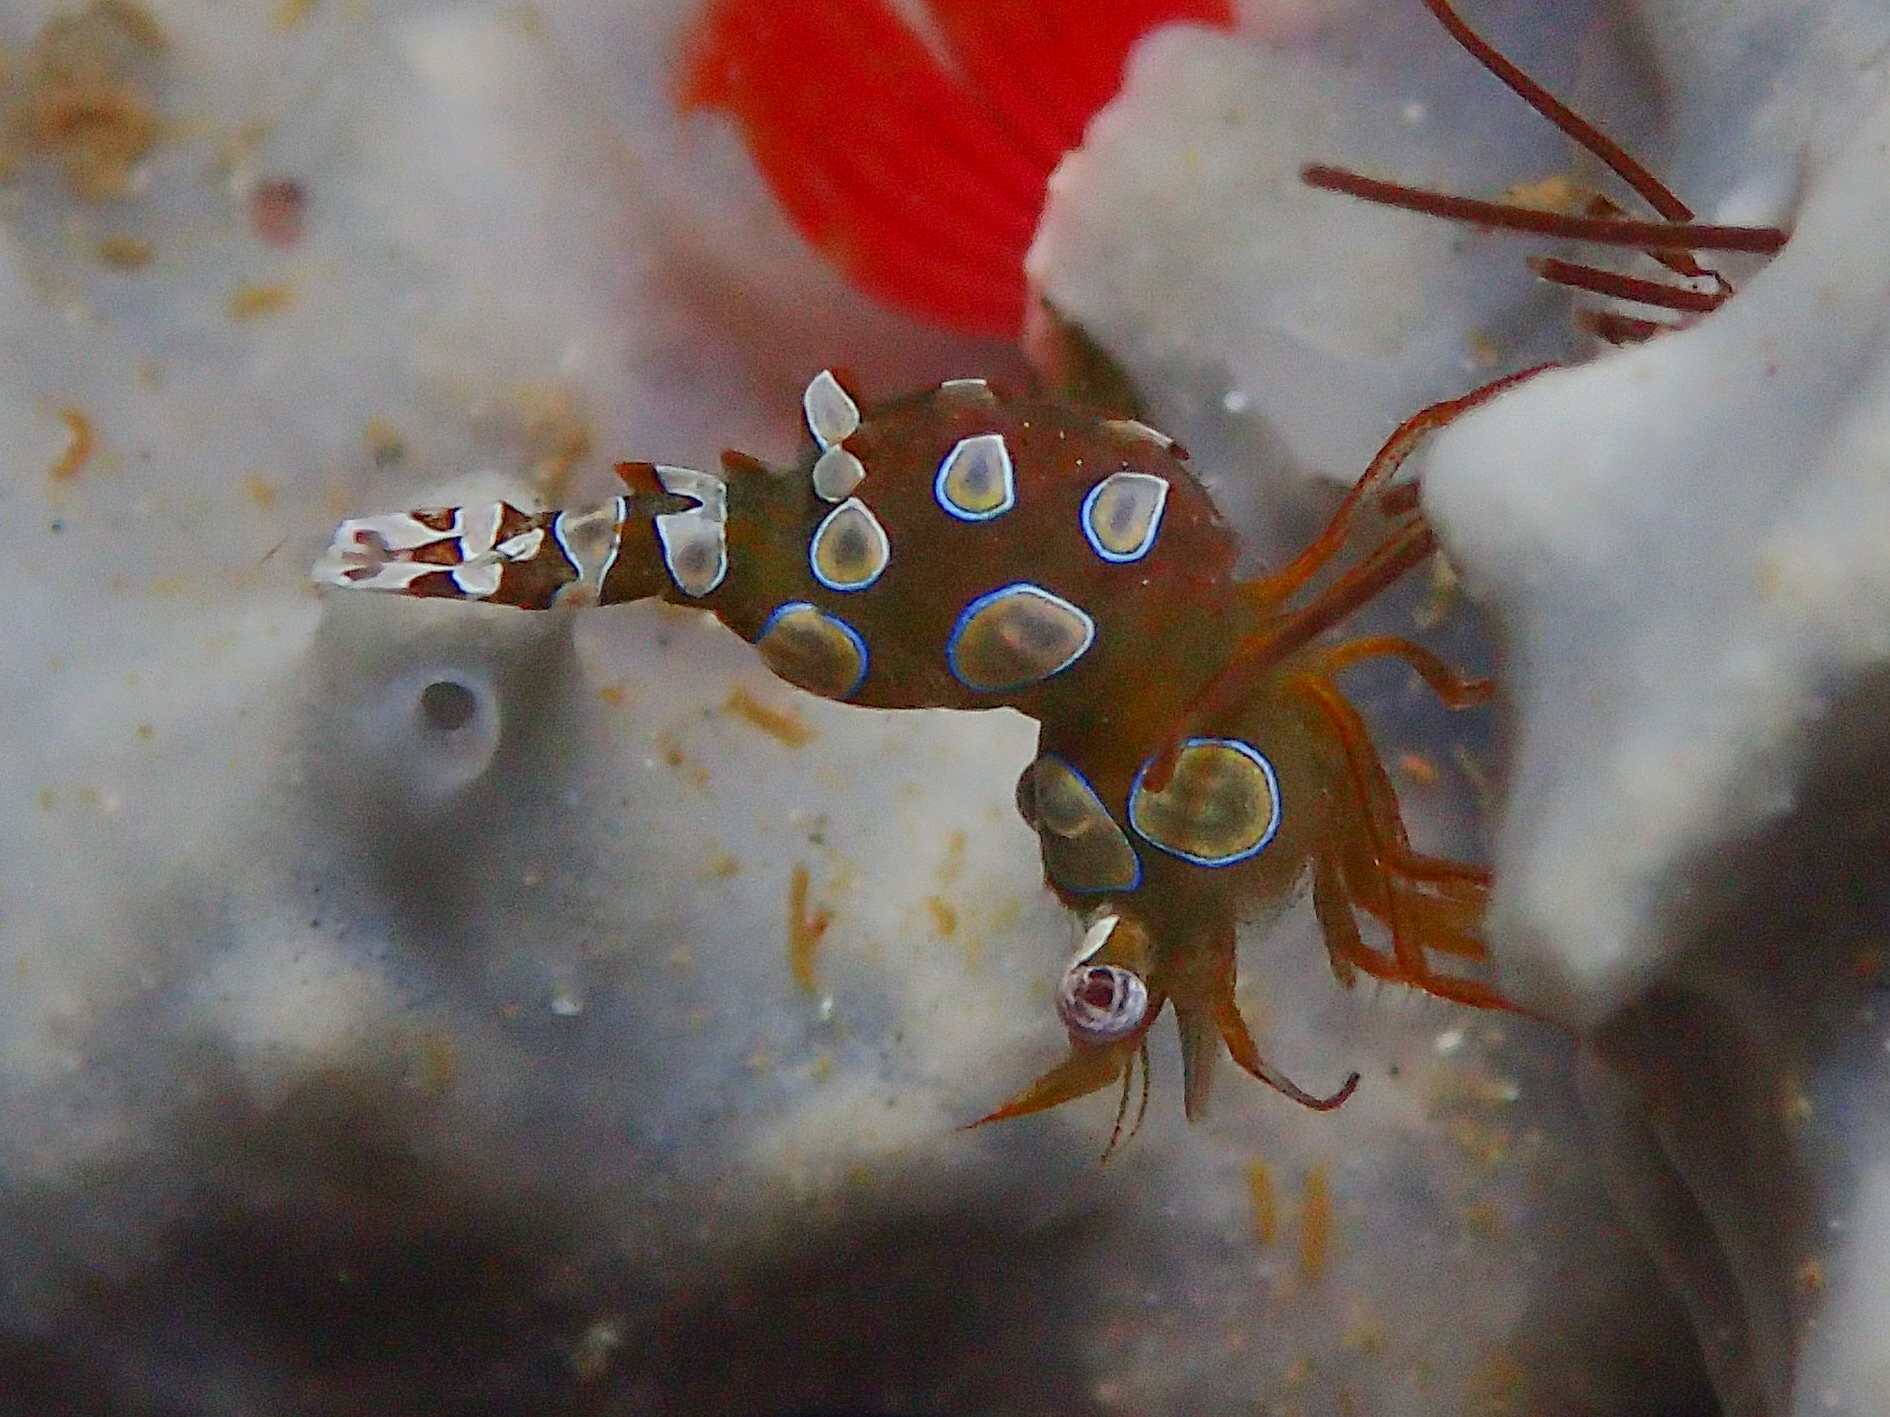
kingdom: Animalia
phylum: Arthropoda
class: Malacostraca
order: Decapoda
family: Thoridae
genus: Thor
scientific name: Thor amboinensis
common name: Squat anemone shrimp
